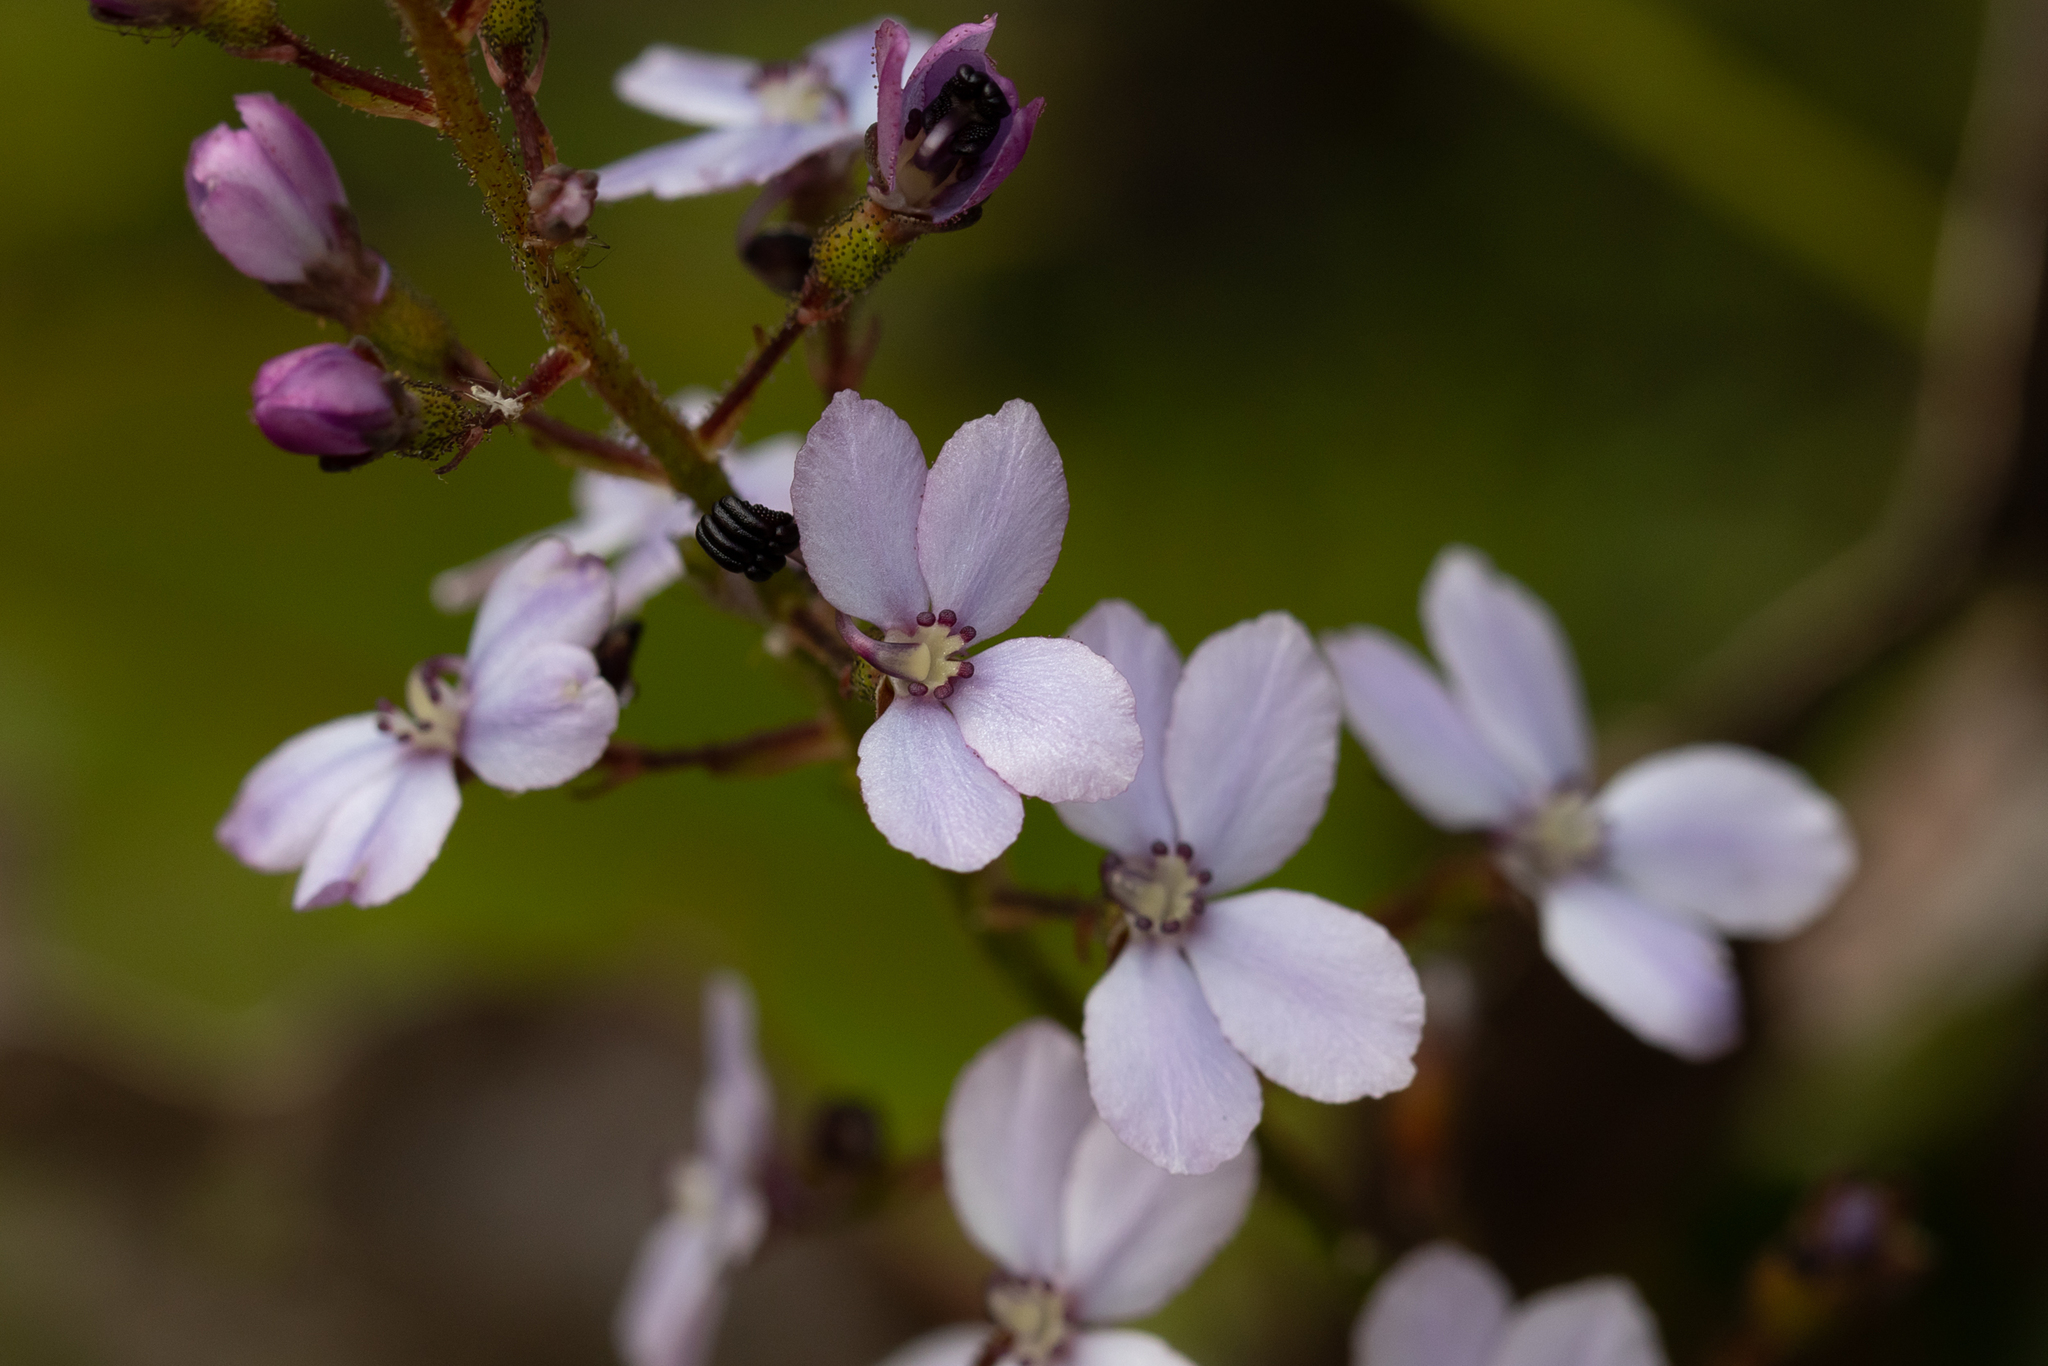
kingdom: Plantae
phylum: Tracheophyta
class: Magnoliopsida
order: Asterales
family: Stylidiaceae
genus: Stylidium
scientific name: Stylidium amoenum
